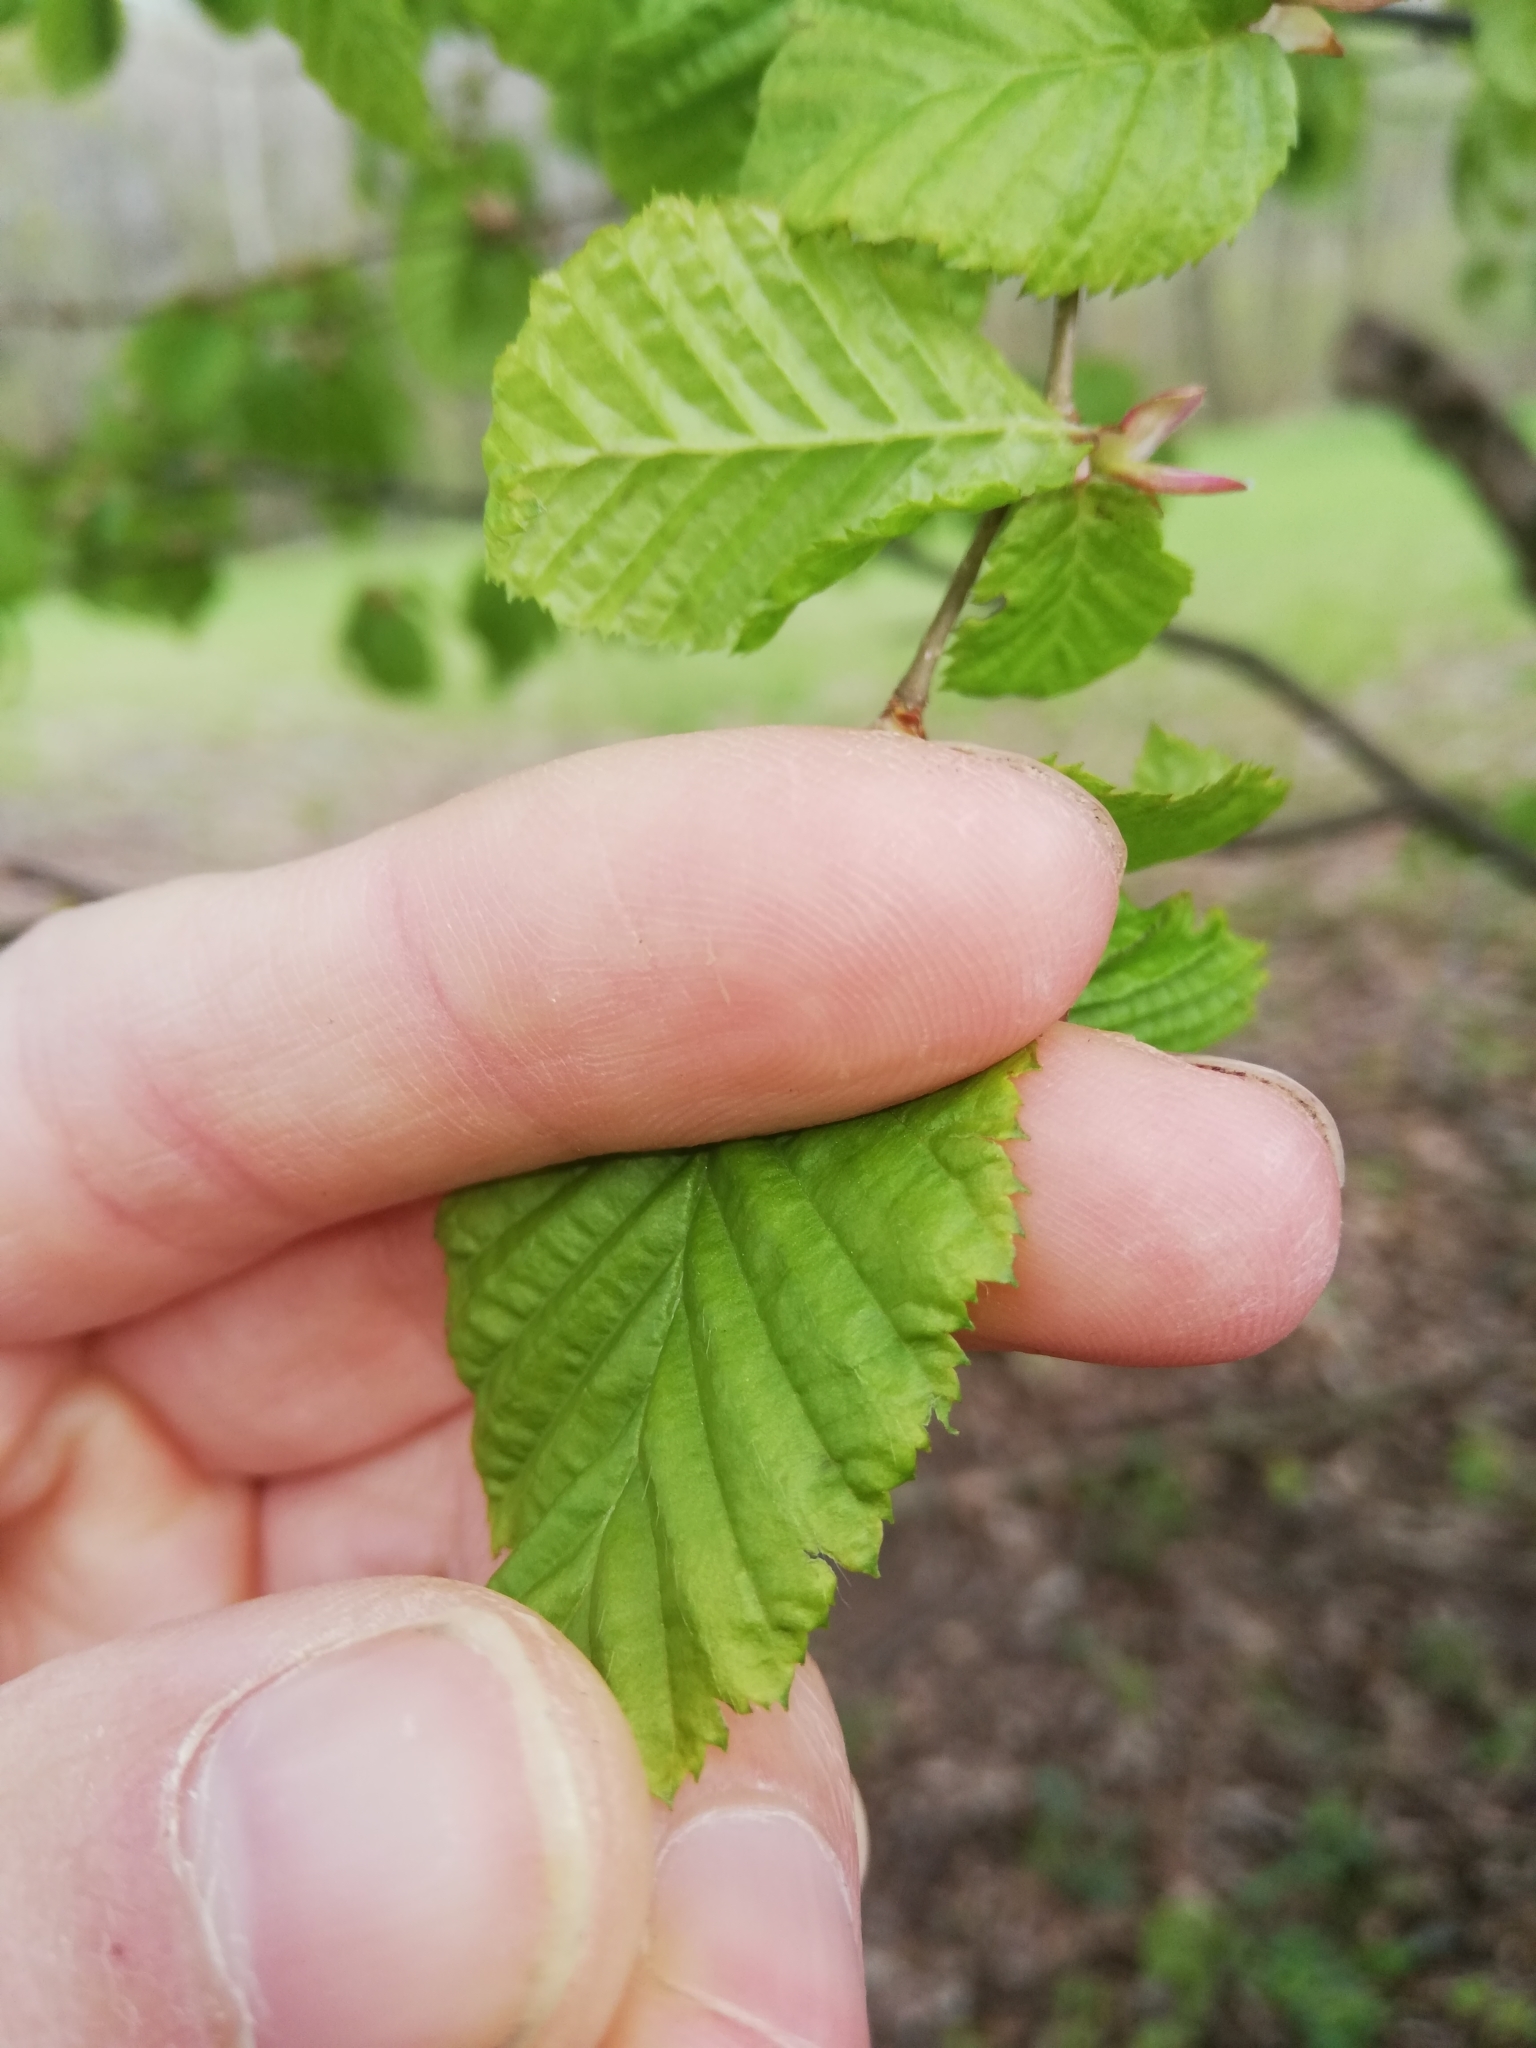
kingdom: Plantae
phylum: Tracheophyta
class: Magnoliopsida
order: Fagales
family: Betulaceae
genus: Carpinus
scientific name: Carpinus betulus
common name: Hornbeam
